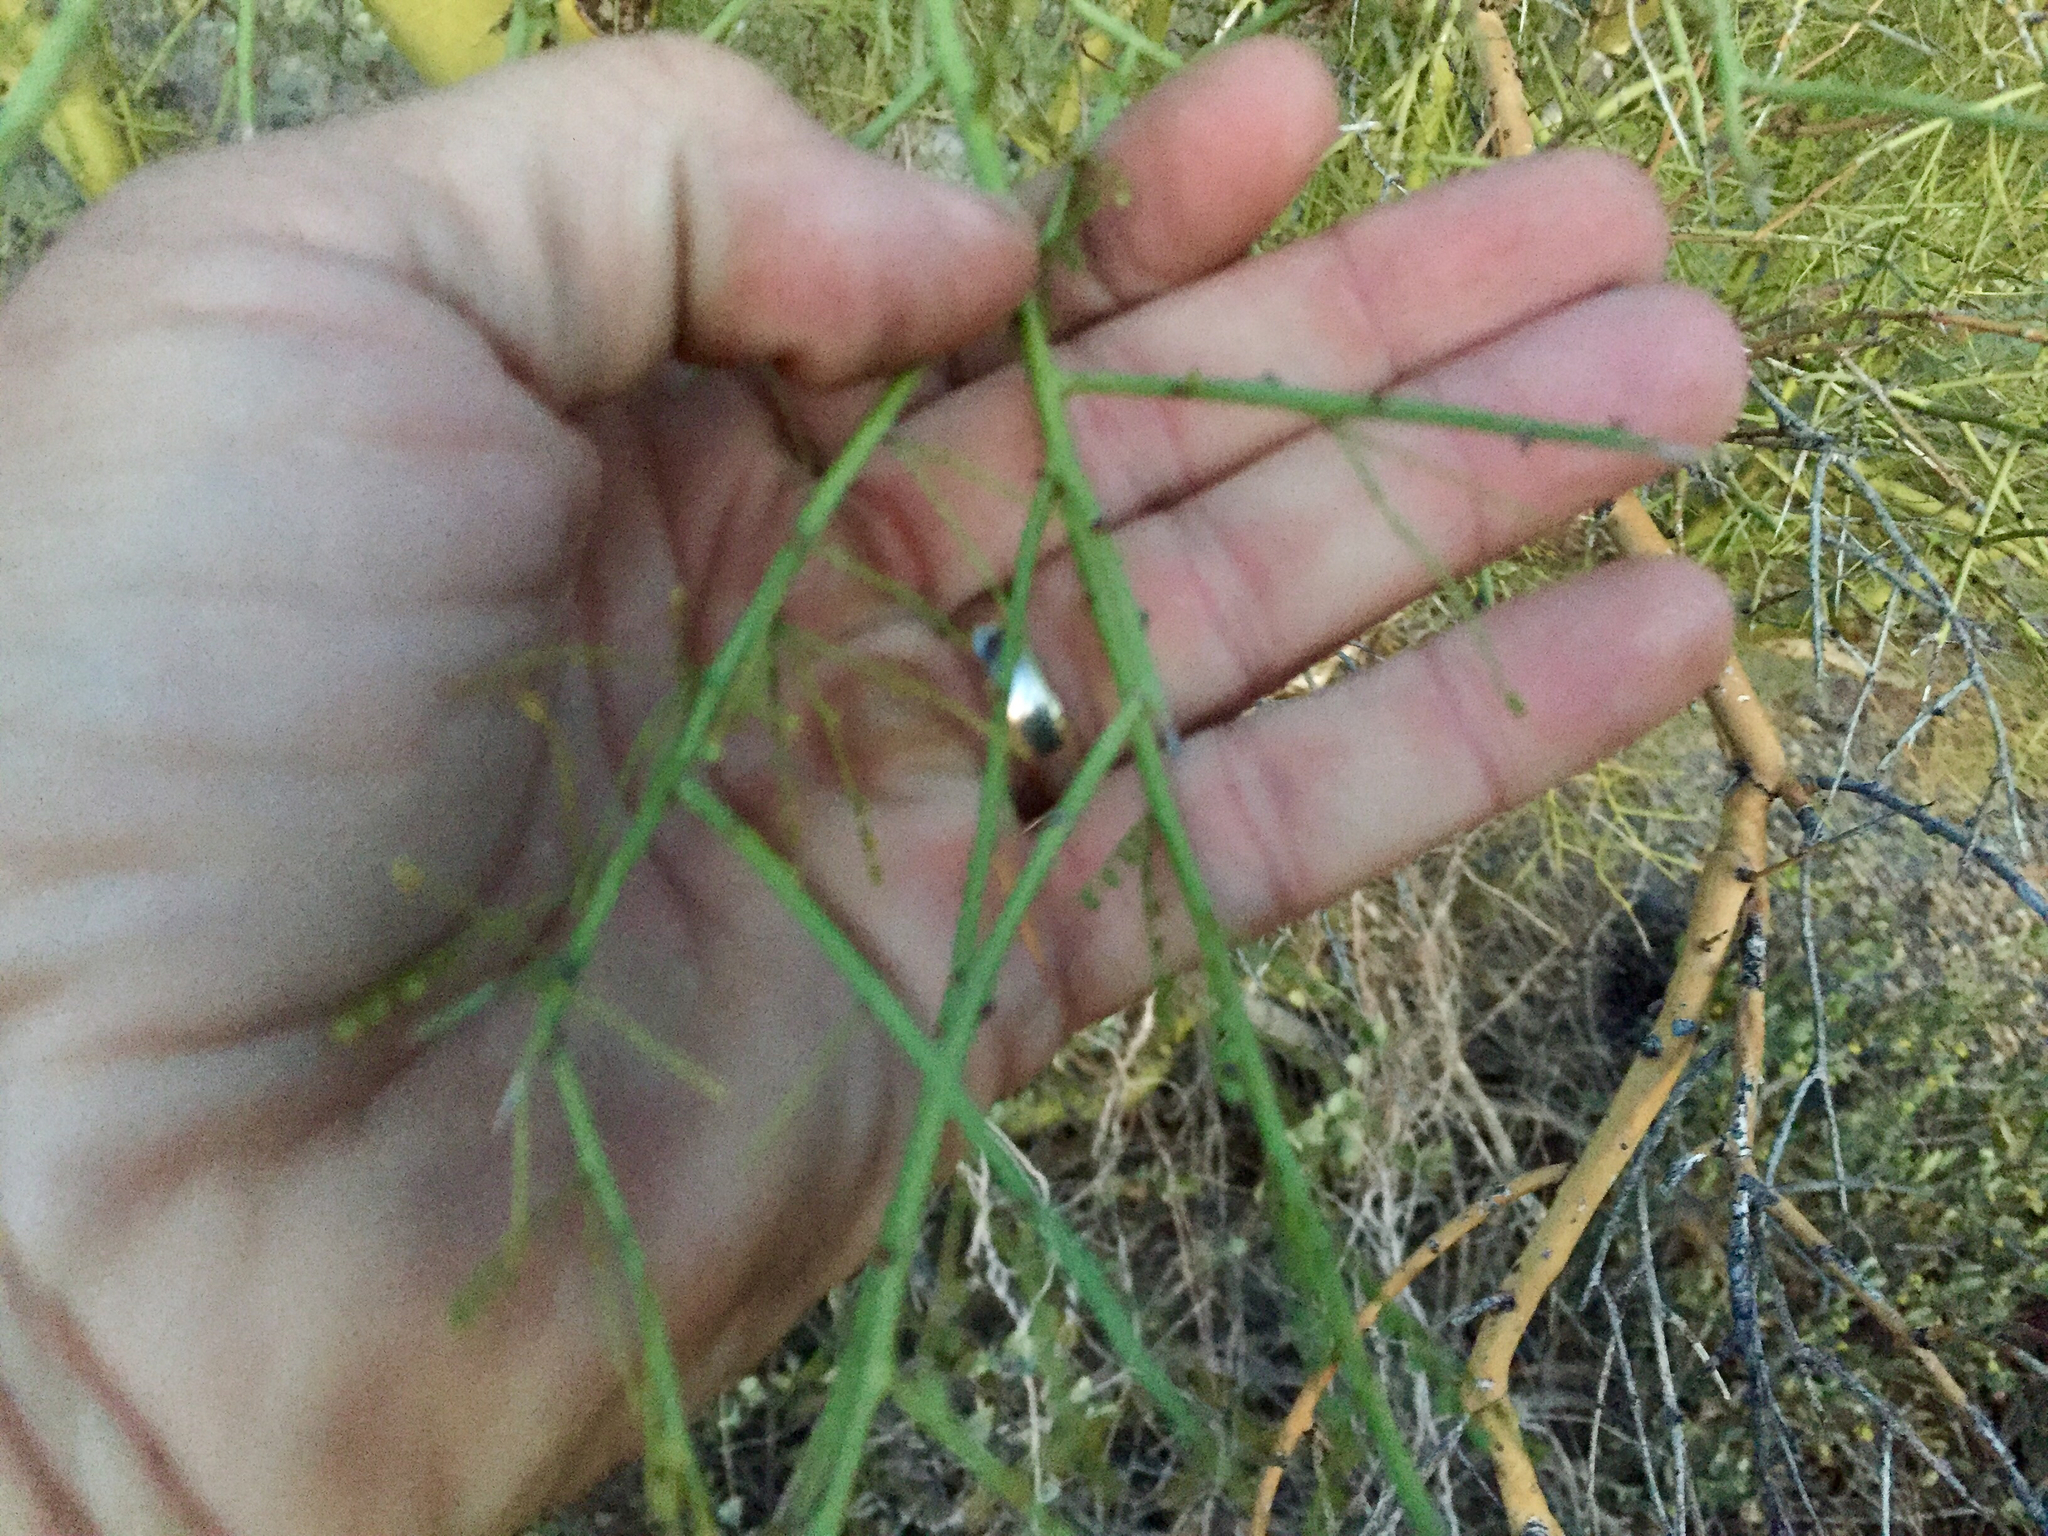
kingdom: Plantae
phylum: Tracheophyta
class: Magnoliopsida
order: Fabales
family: Fabaceae
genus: Parkinsonia
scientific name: Parkinsonia microphylla
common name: Yellow paloverde
